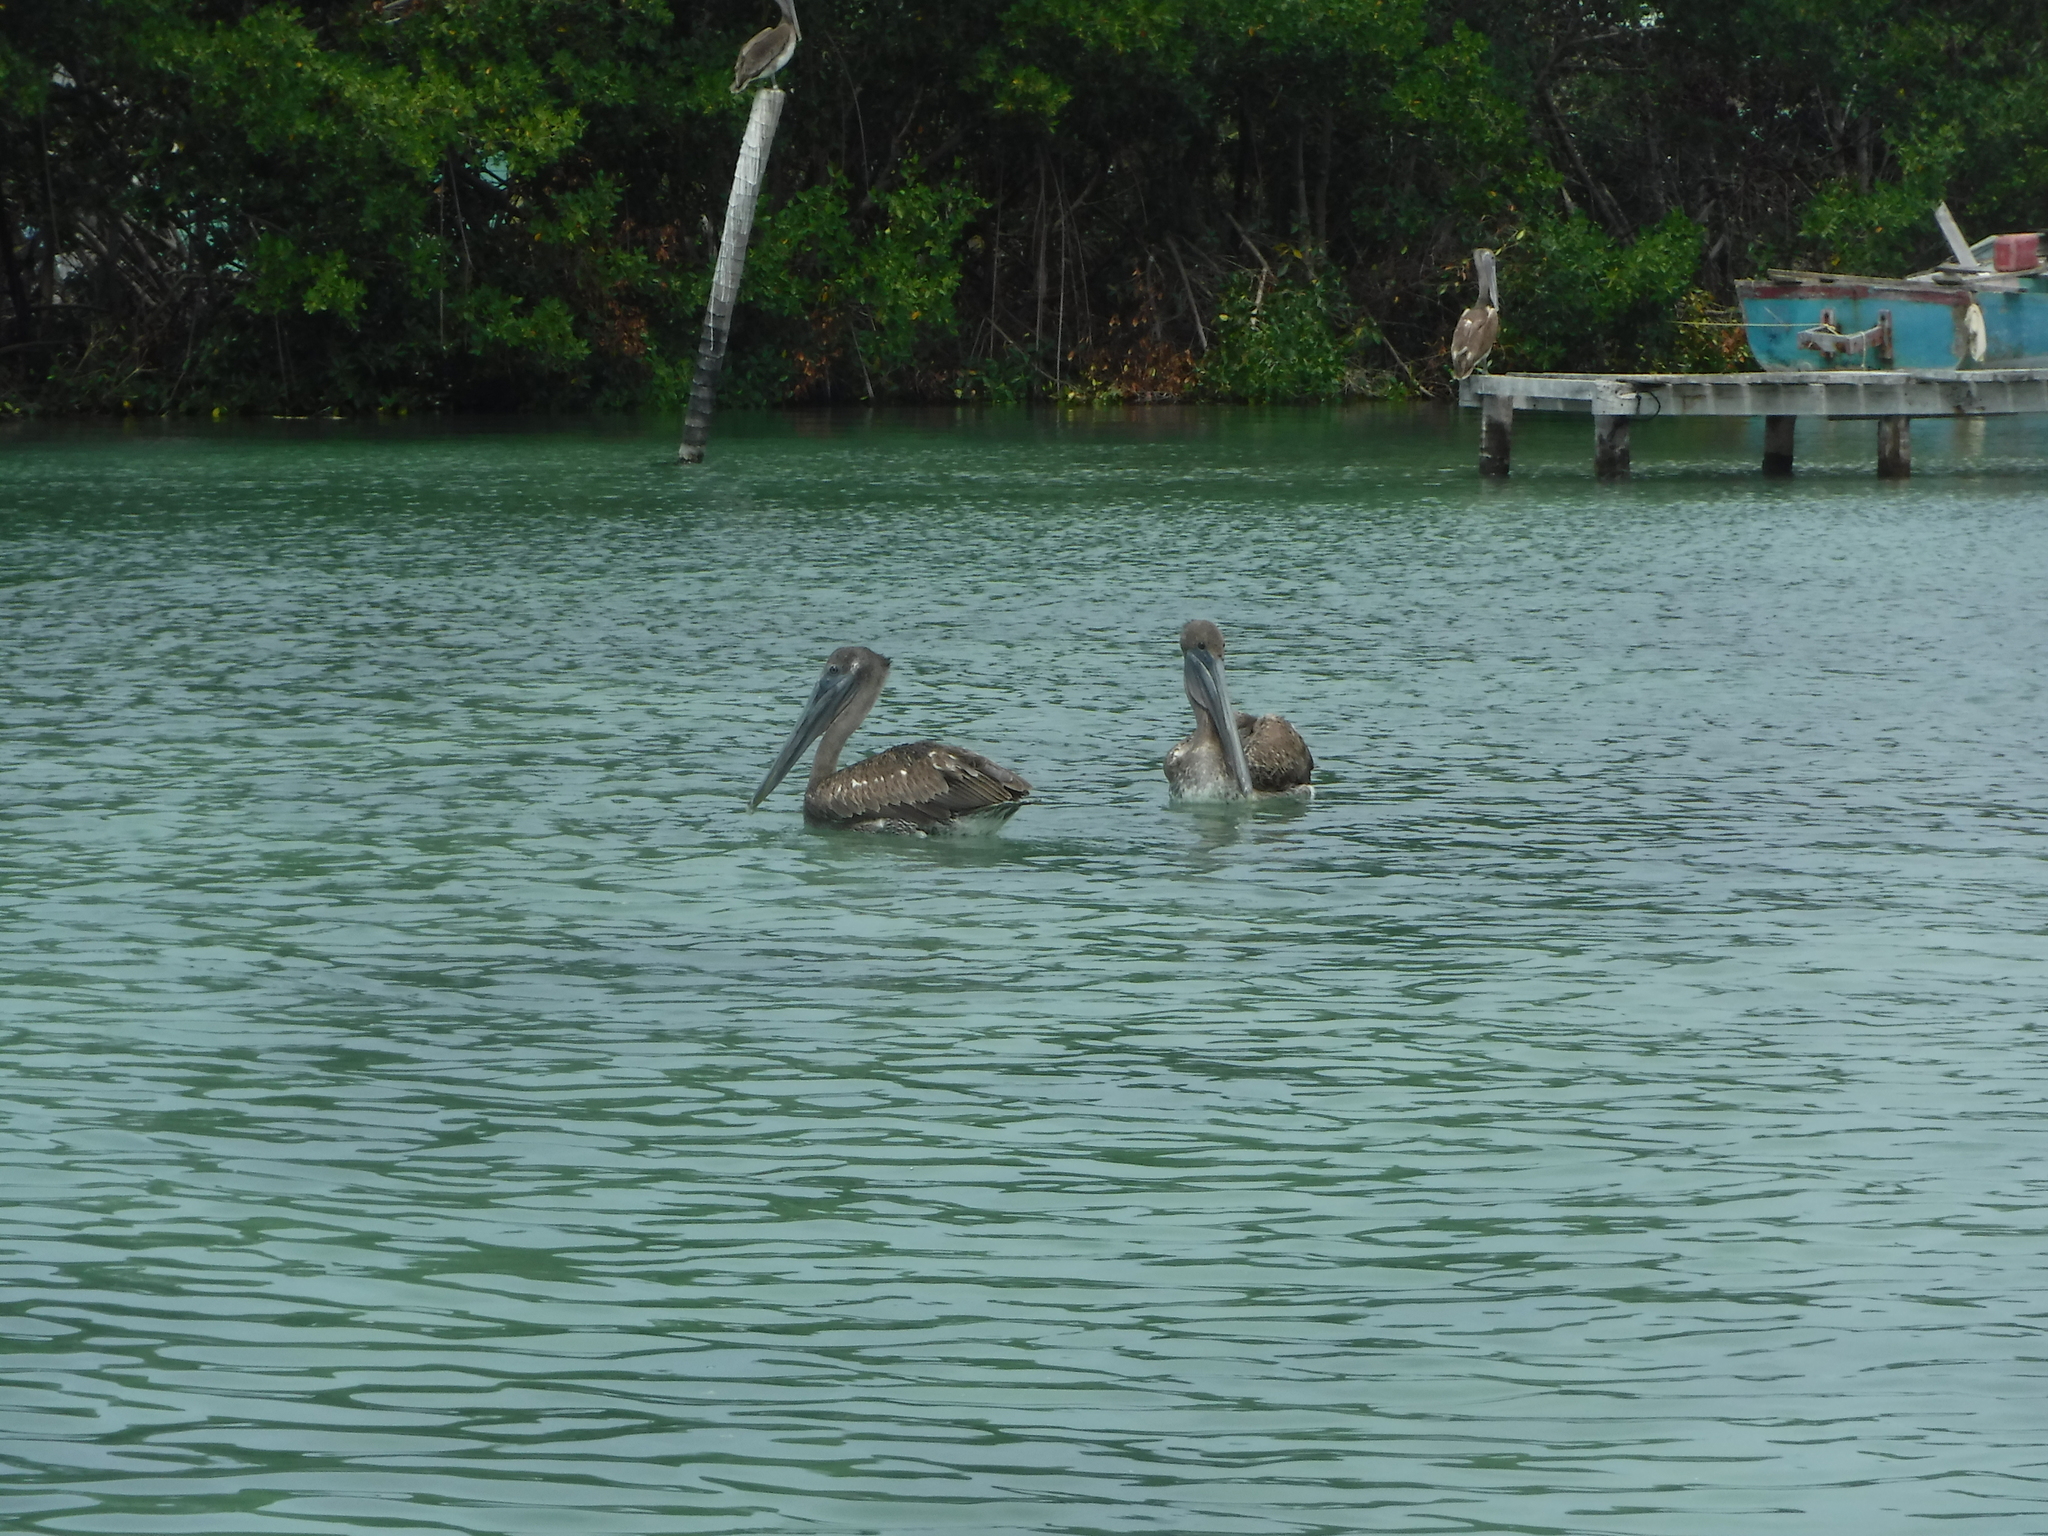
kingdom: Animalia
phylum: Chordata
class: Aves
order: Pelecaniformes
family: Pelecanidae
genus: Pelecanus
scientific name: Pelecanus occidentalis
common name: Brown pelican
